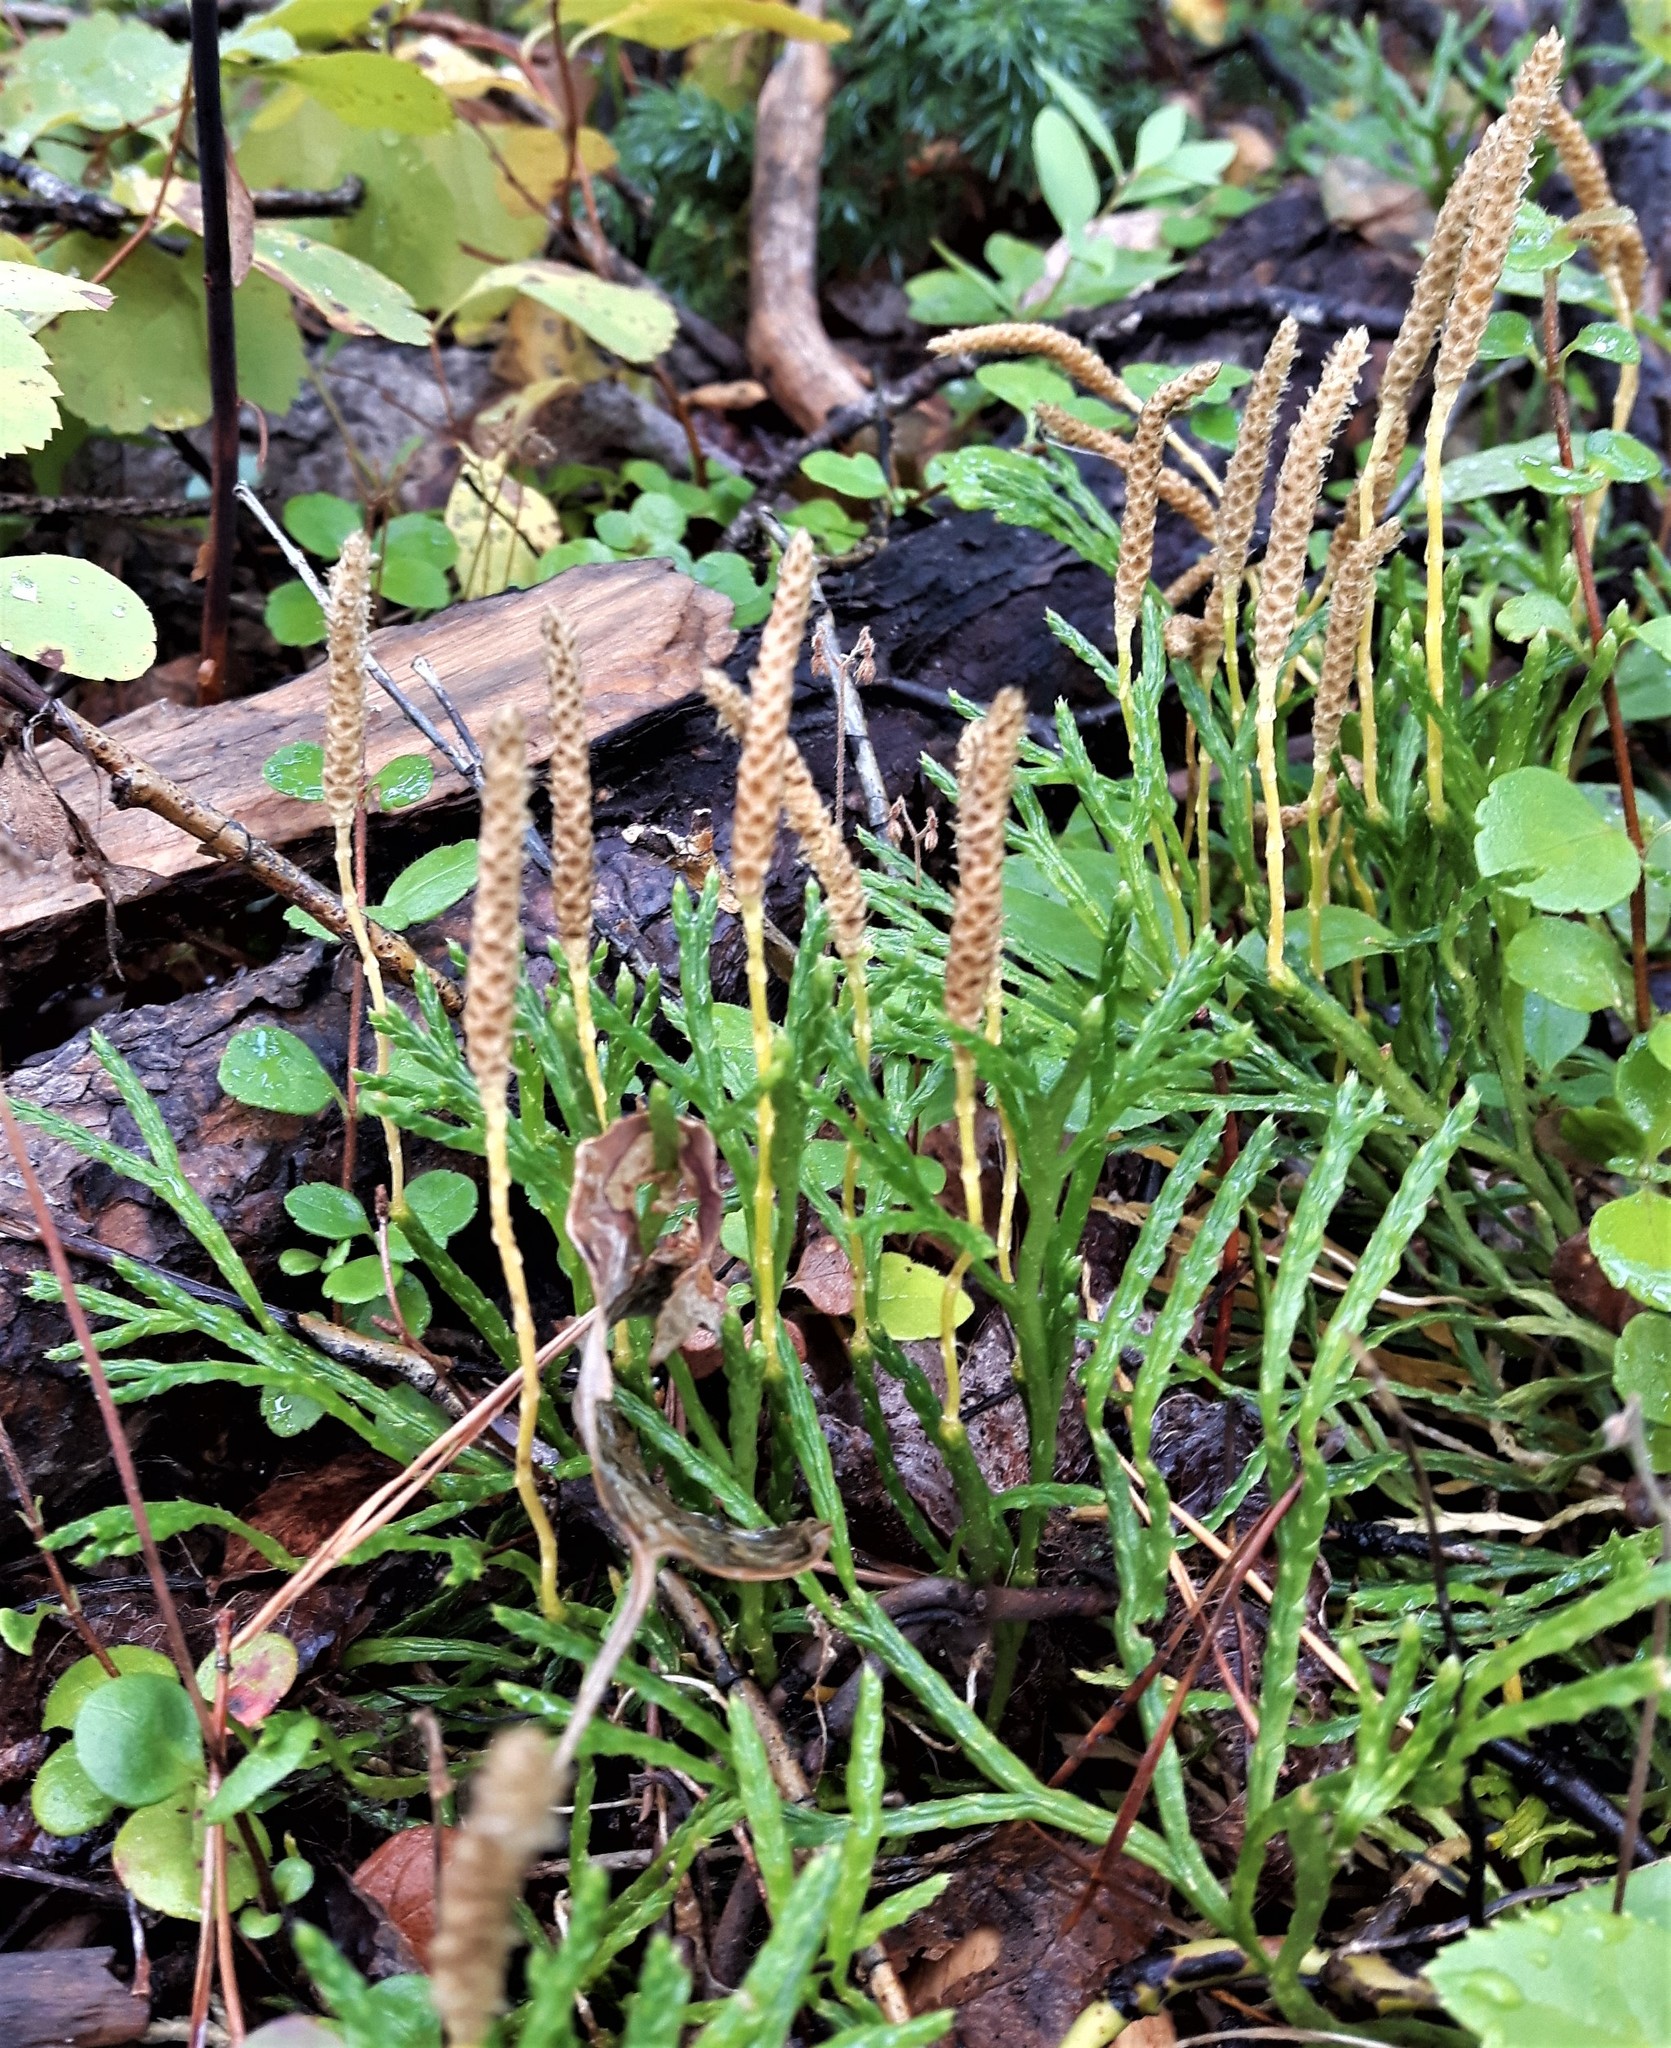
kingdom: Plantae
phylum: Tracheophyta
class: Lycopodiopsida
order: Lycopodiales
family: Lycopodiaceae
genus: Diphasiastrum
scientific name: Diphasiastrum complanatum
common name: Northern running-pine
